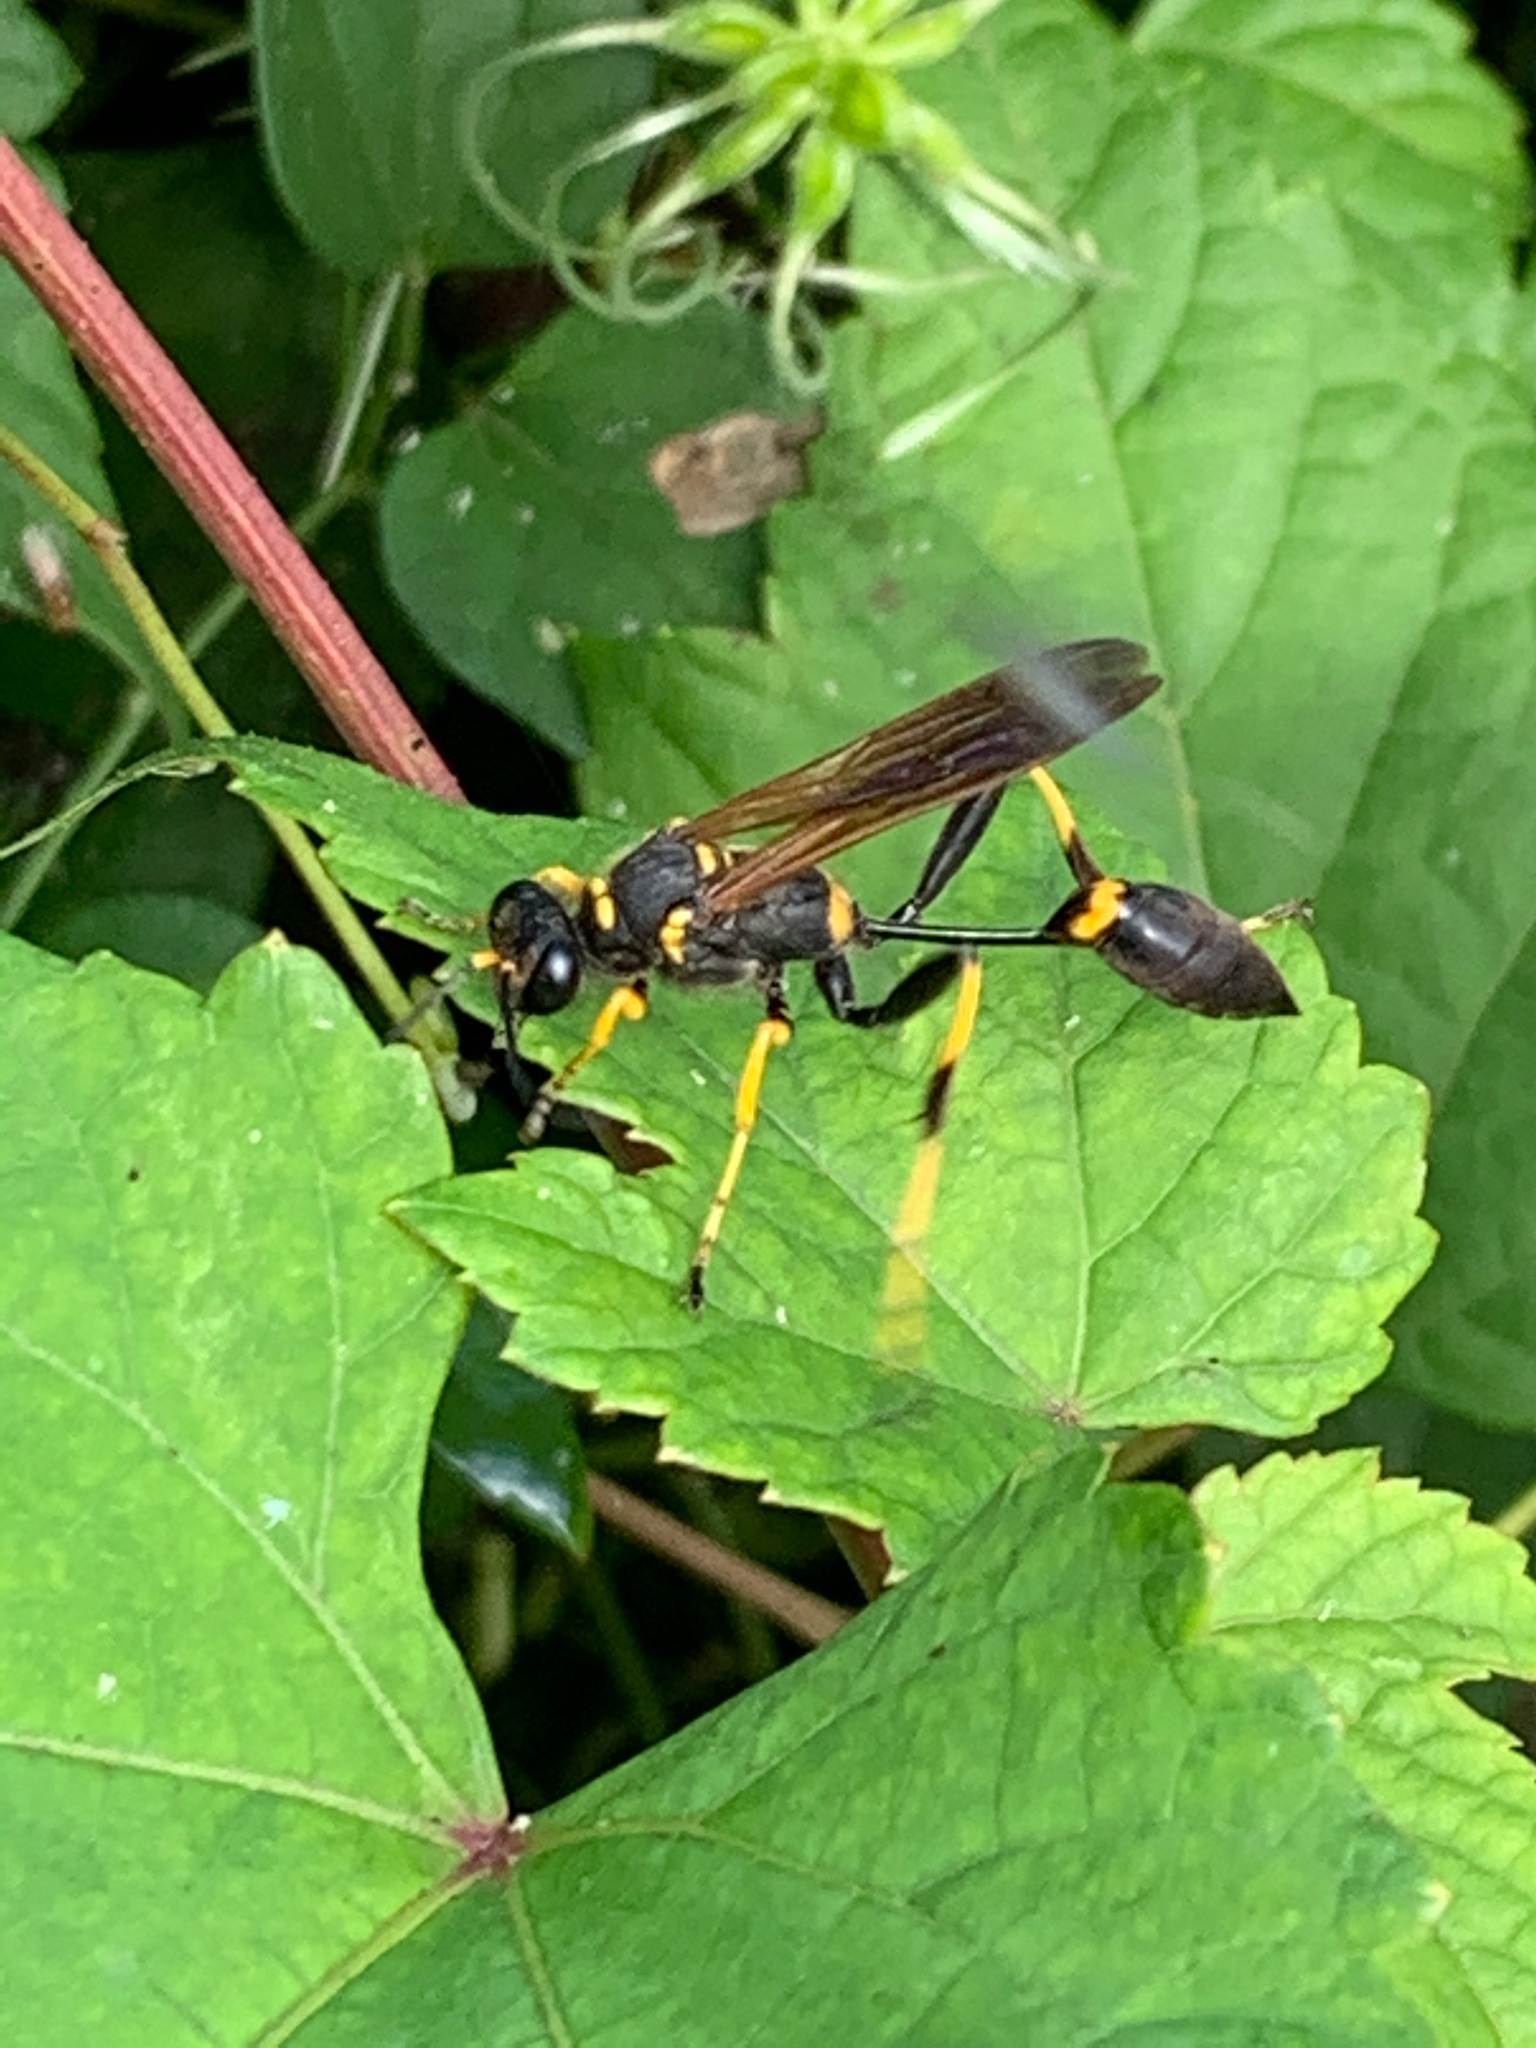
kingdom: Animalia
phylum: Arthropoda
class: Insecta
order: Hymenoptera
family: Sphecidae
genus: Sceliphron
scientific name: Sceliphron caementarium
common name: Mud dauber
